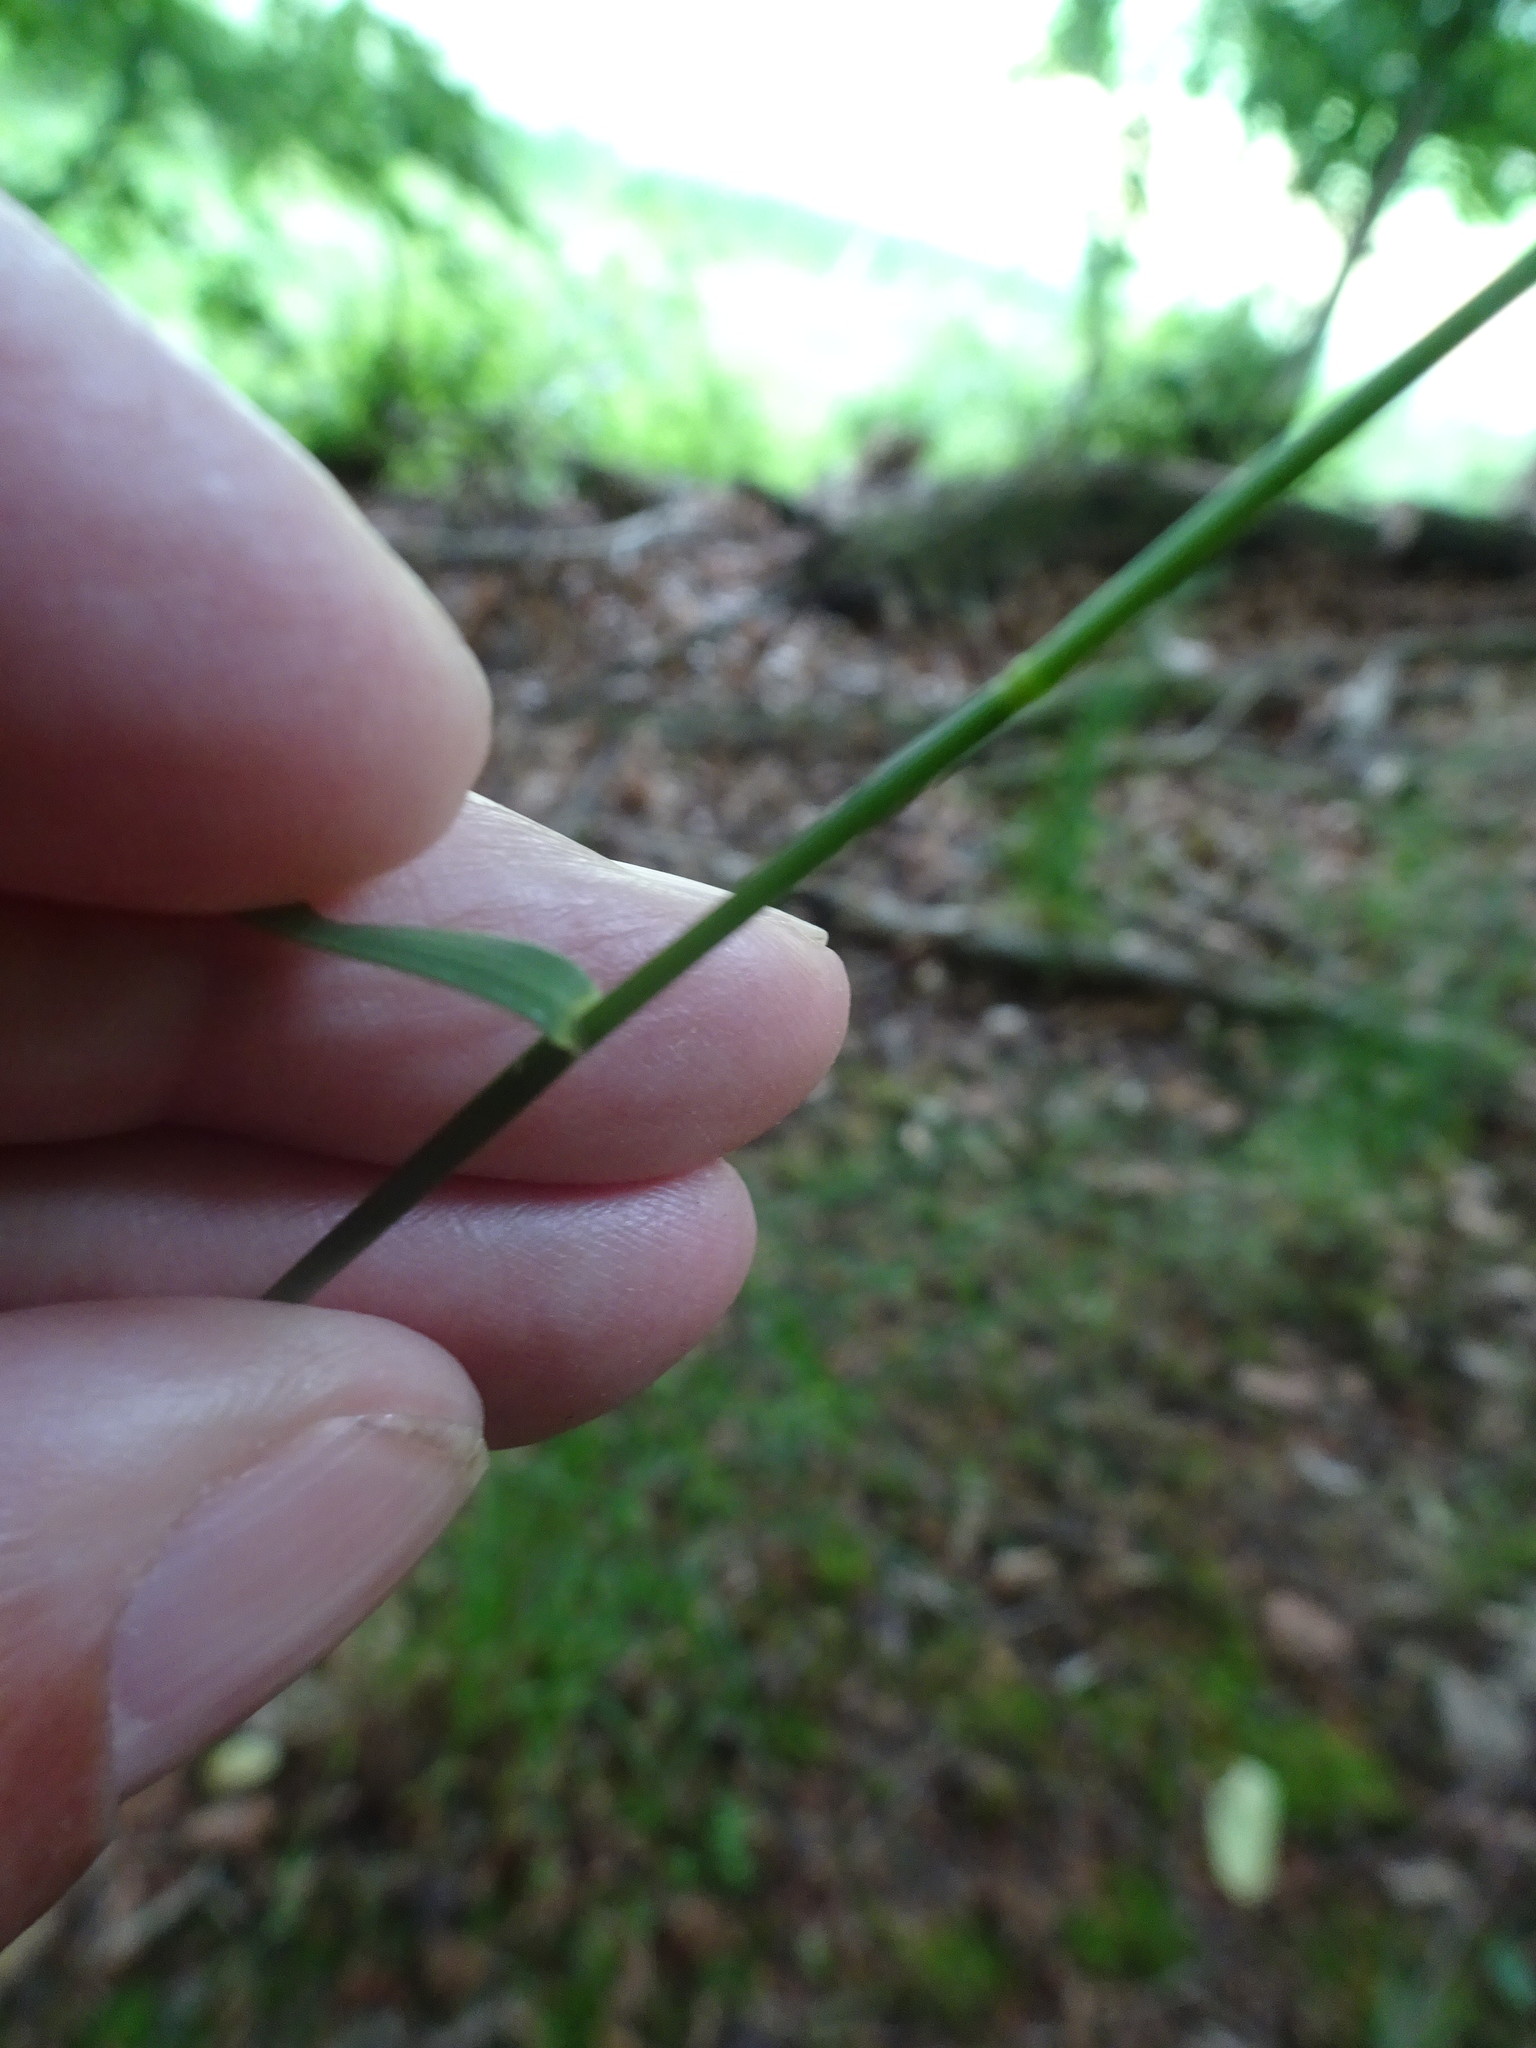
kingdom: Plantae
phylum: Tracheophyta
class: Liliopsida
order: Poales
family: Poaceae
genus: Poa
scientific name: Poa nemoralis
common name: Wood bluegrass
